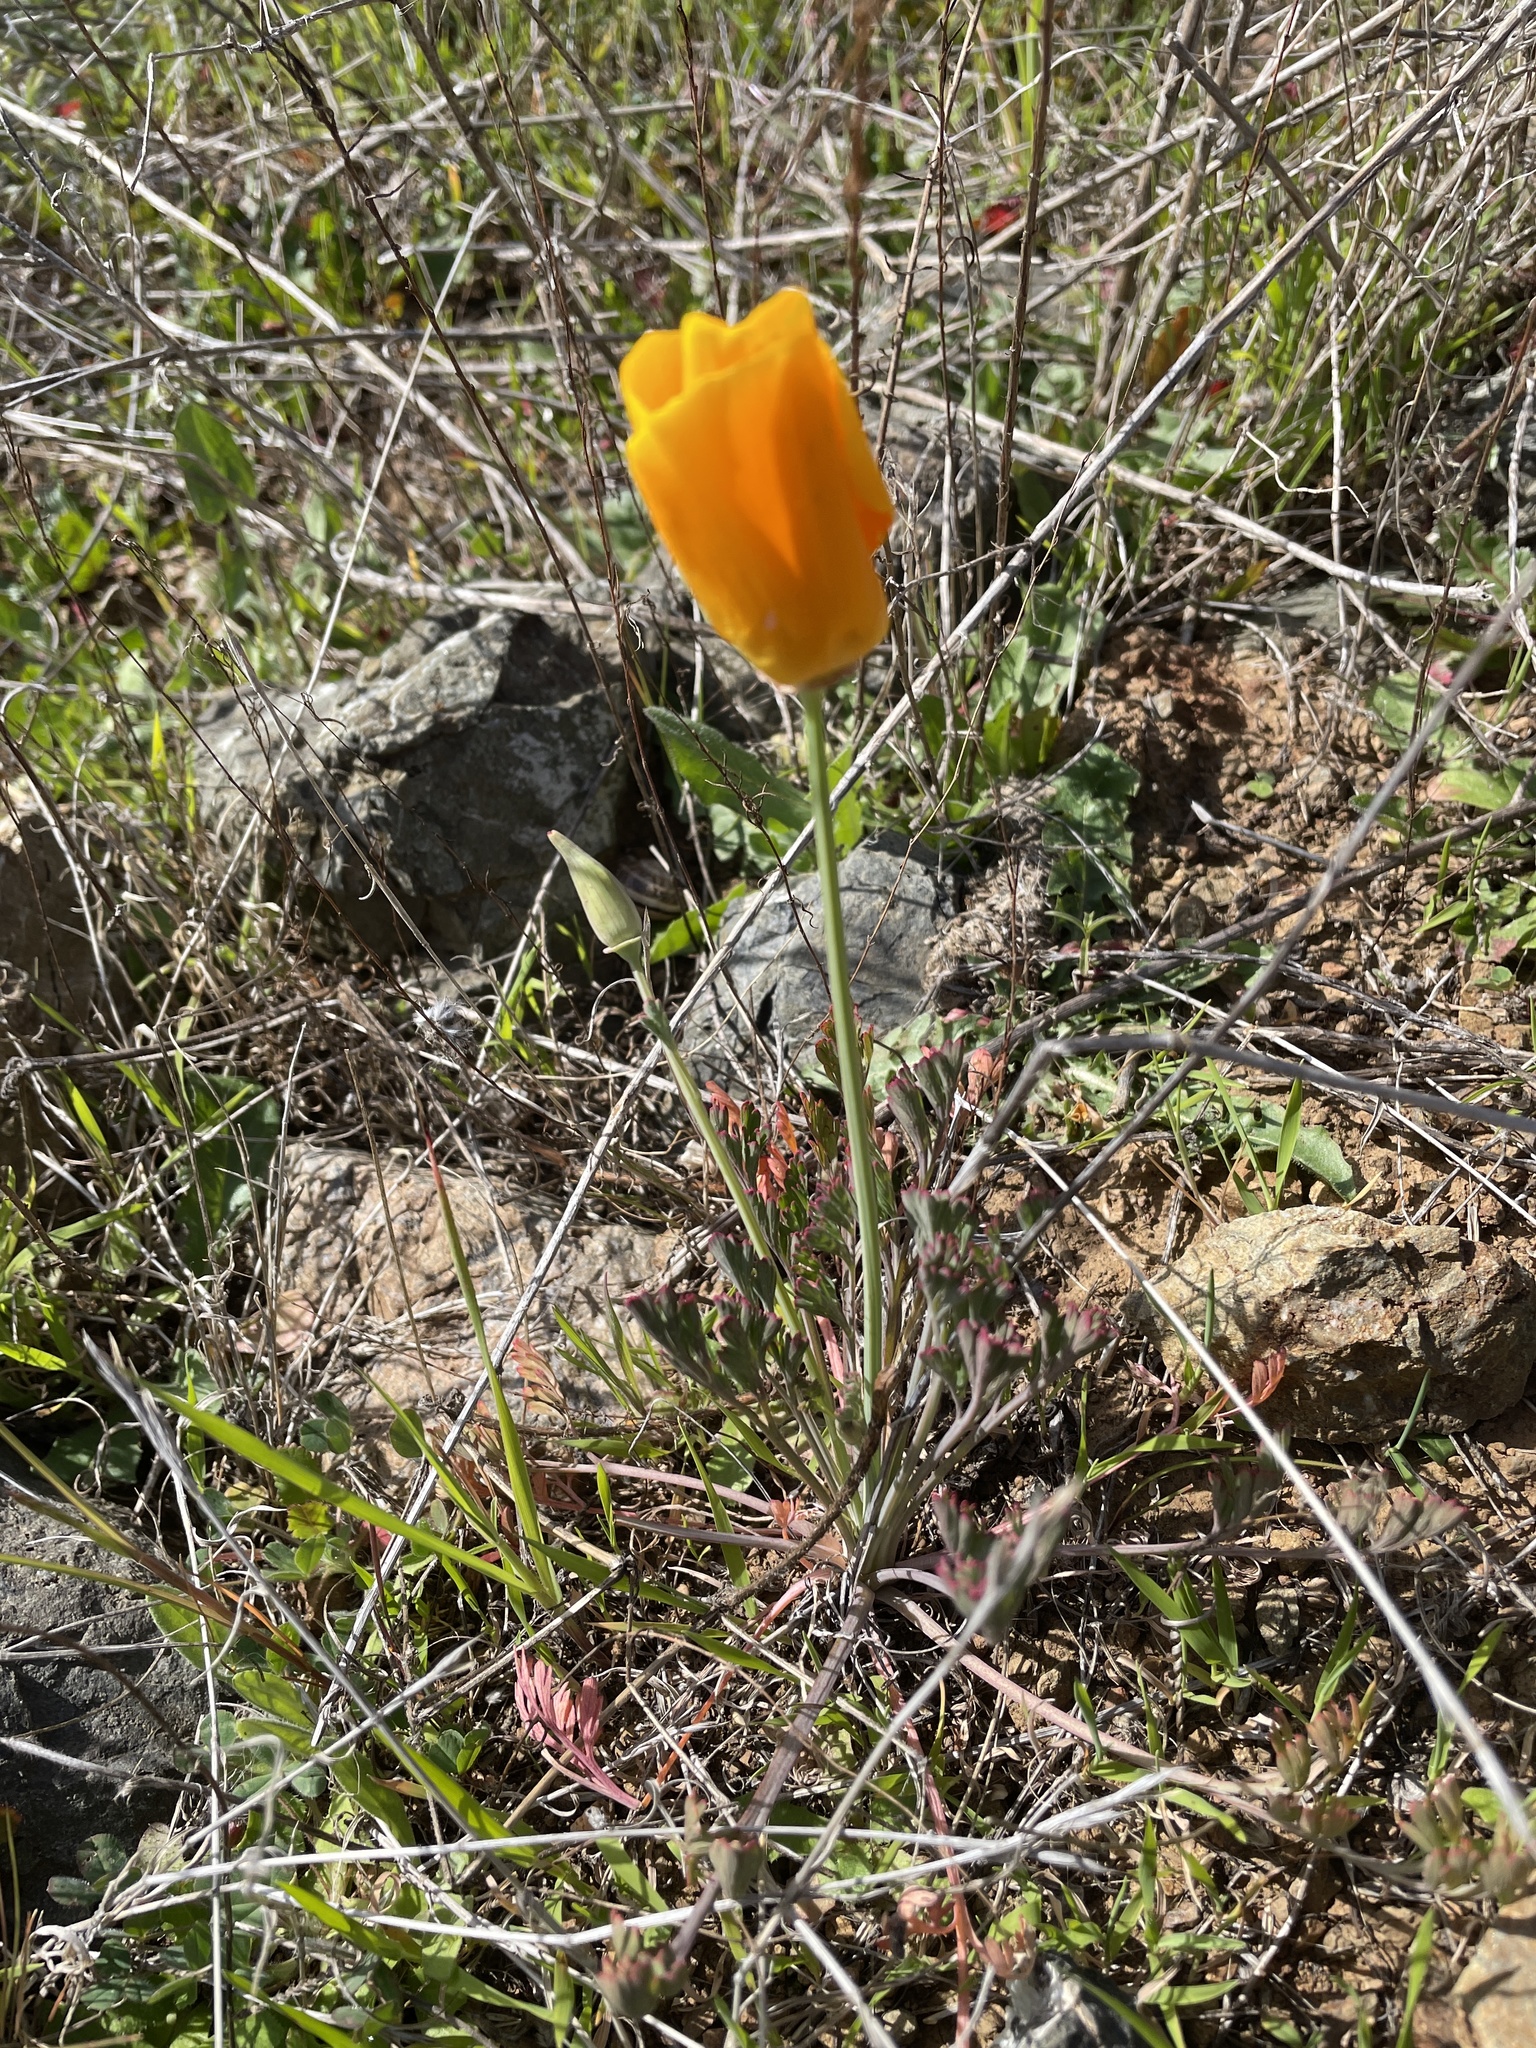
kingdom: Plantae
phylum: Tracheophyta
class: Magnoliopsida
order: Ranunculales
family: Papaveraceae
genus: Eschscholzia
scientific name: Eschscholzia californica
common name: California poppy
